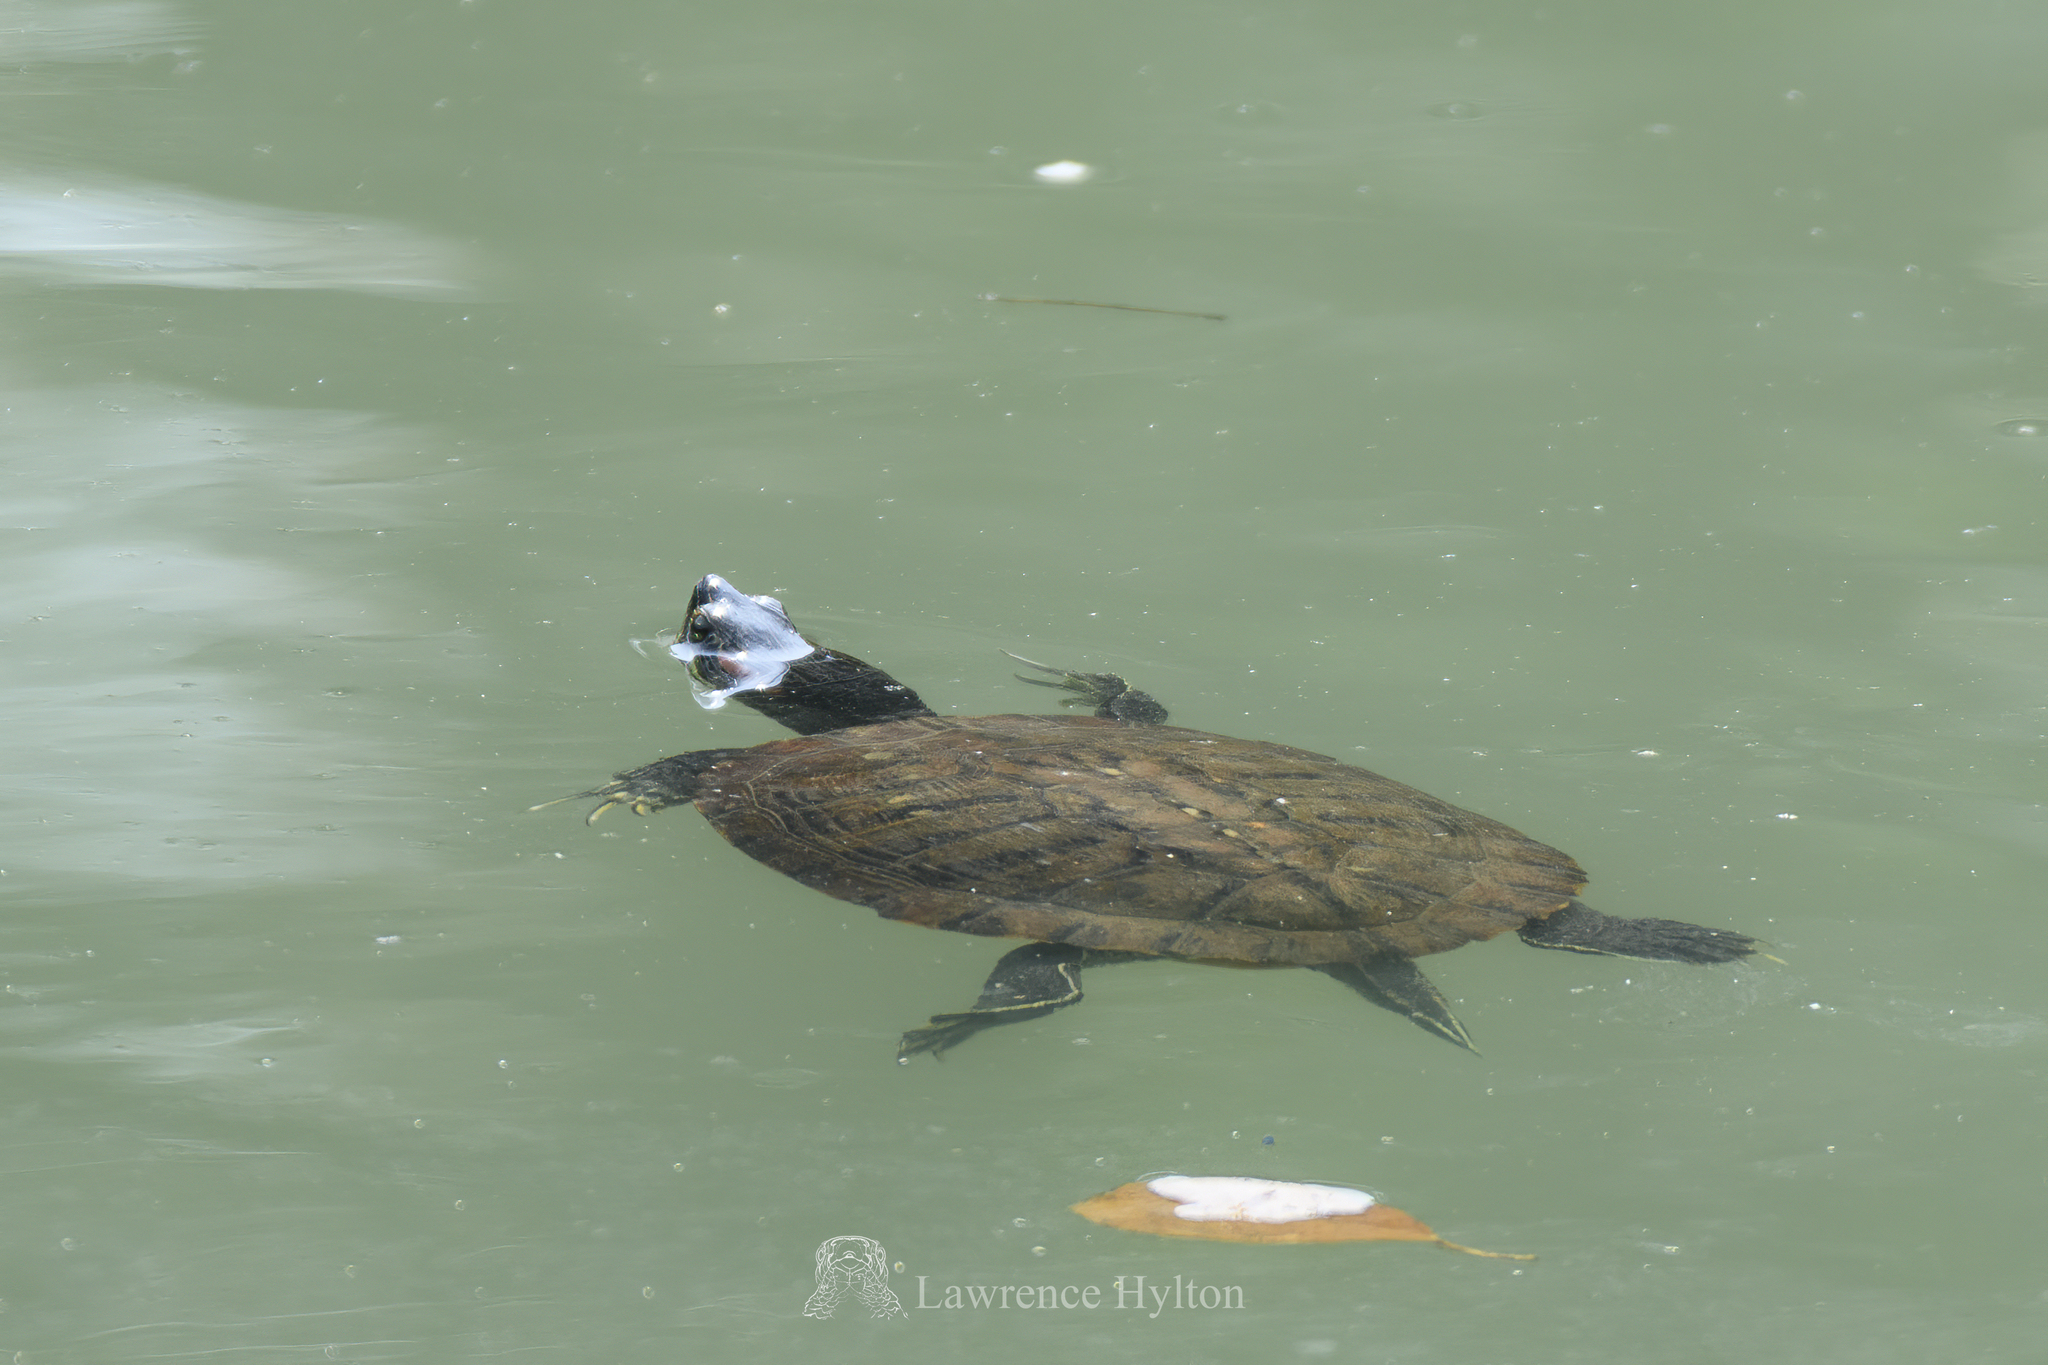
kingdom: Animalia
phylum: Chordata
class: Testudines
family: Emydidae
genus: Trachemys
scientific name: Trachemys scripta
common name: Slider
